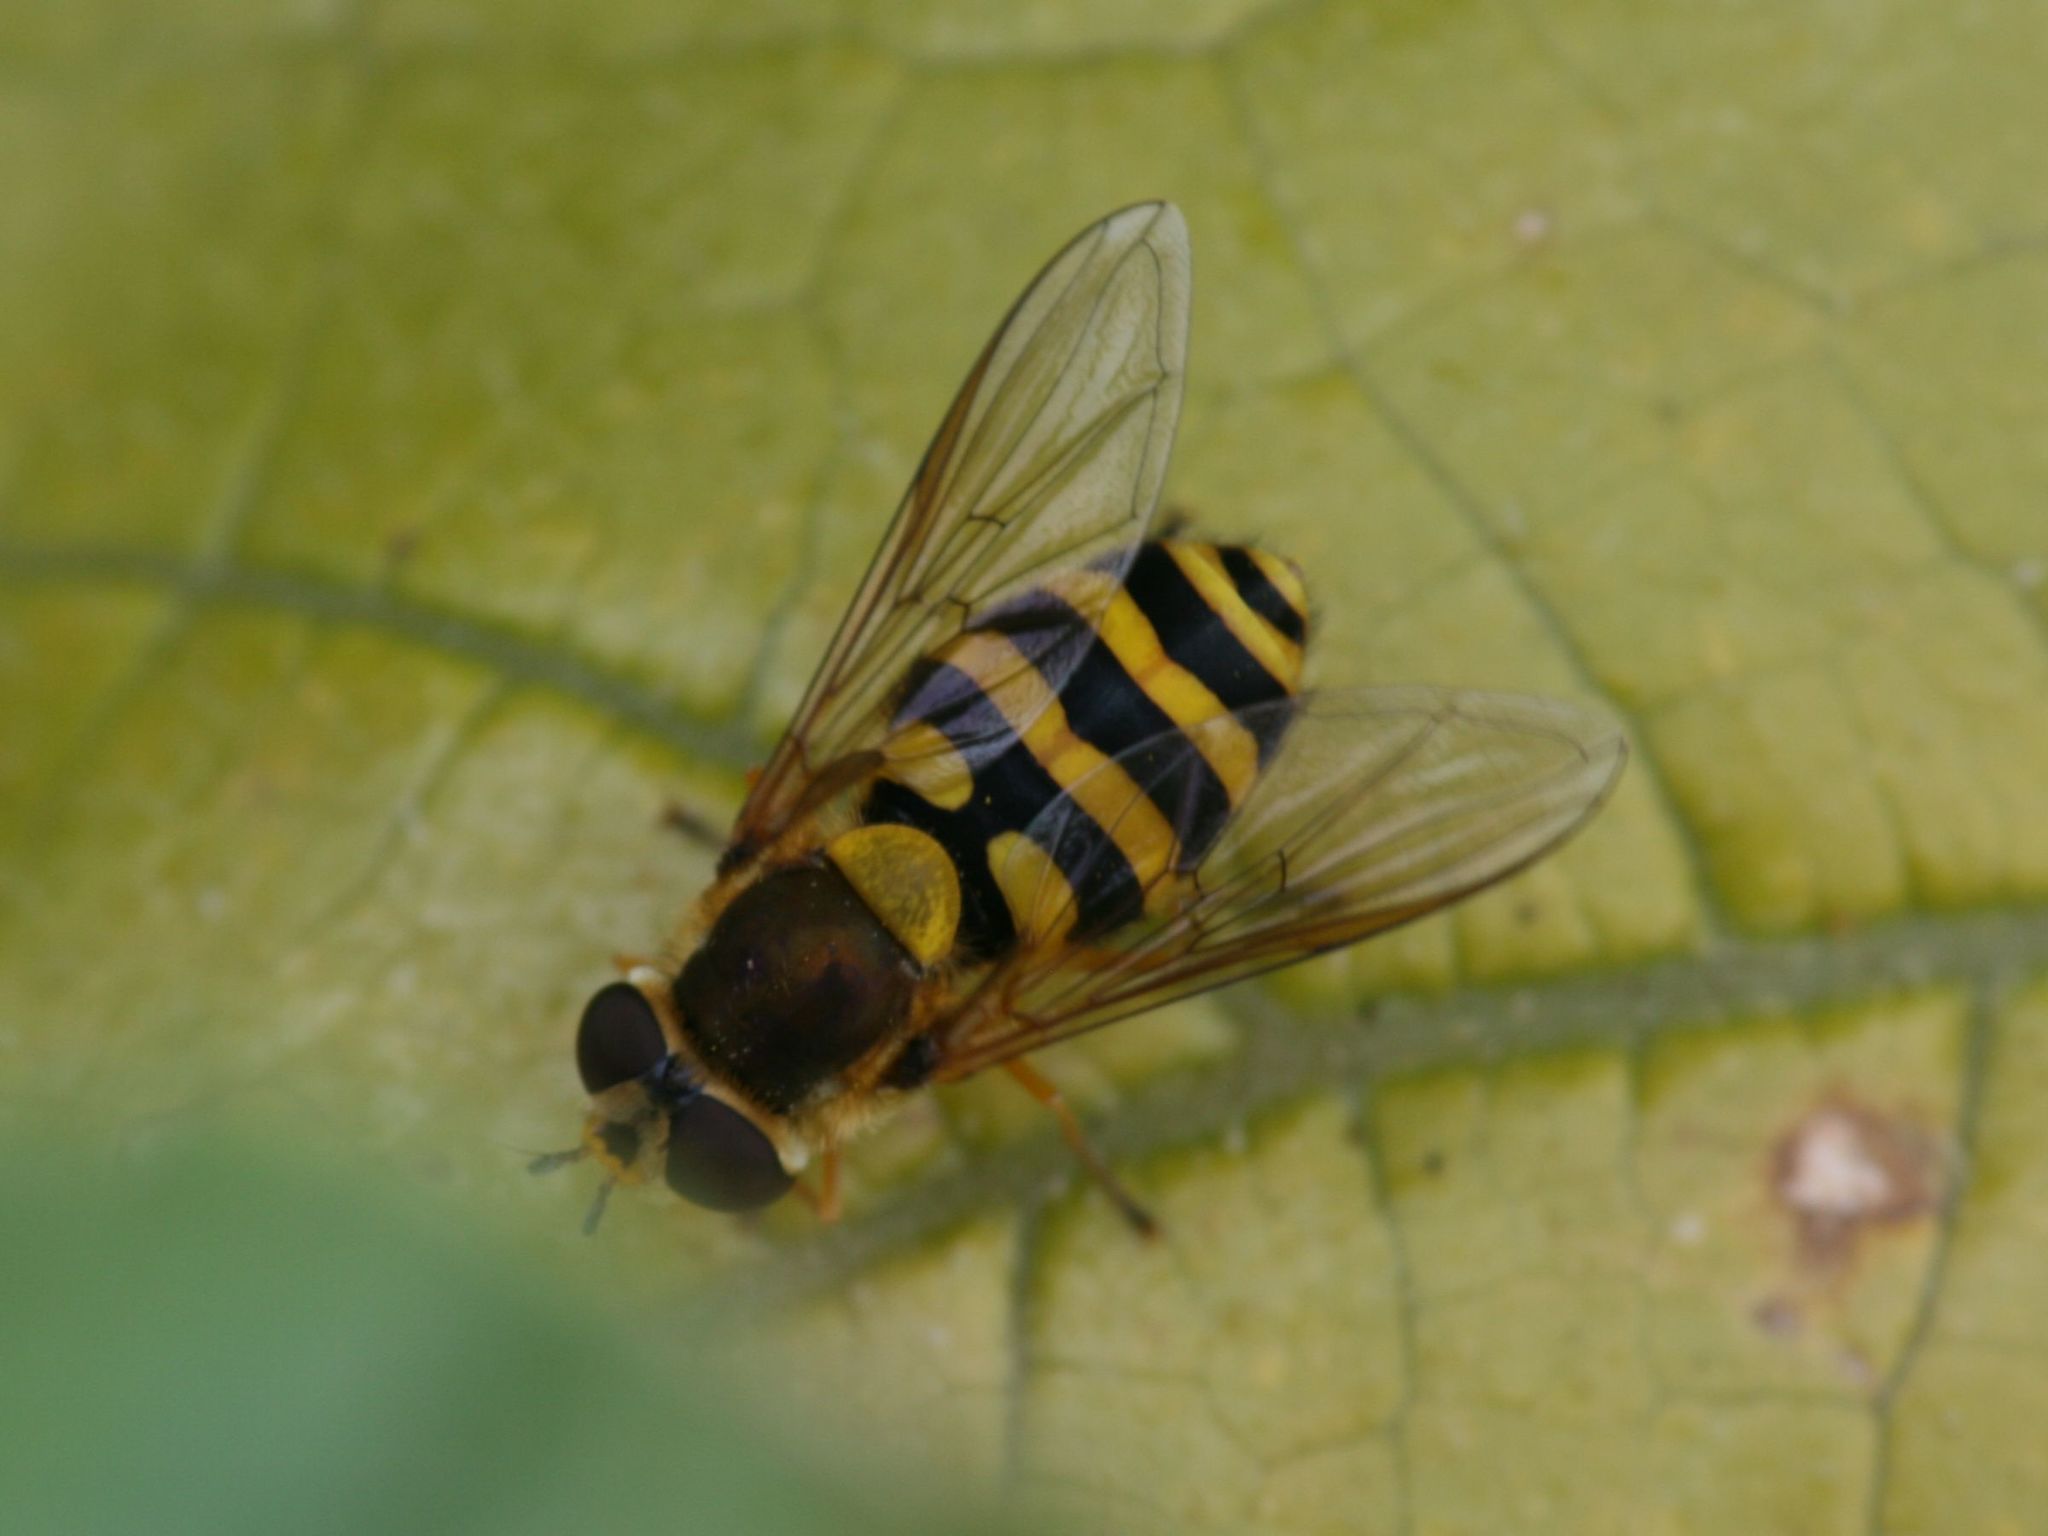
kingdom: Animalia
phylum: Arthropoda
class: Insecta
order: Diptera
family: Syrphidae
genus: Syrphus
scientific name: Syrphus
